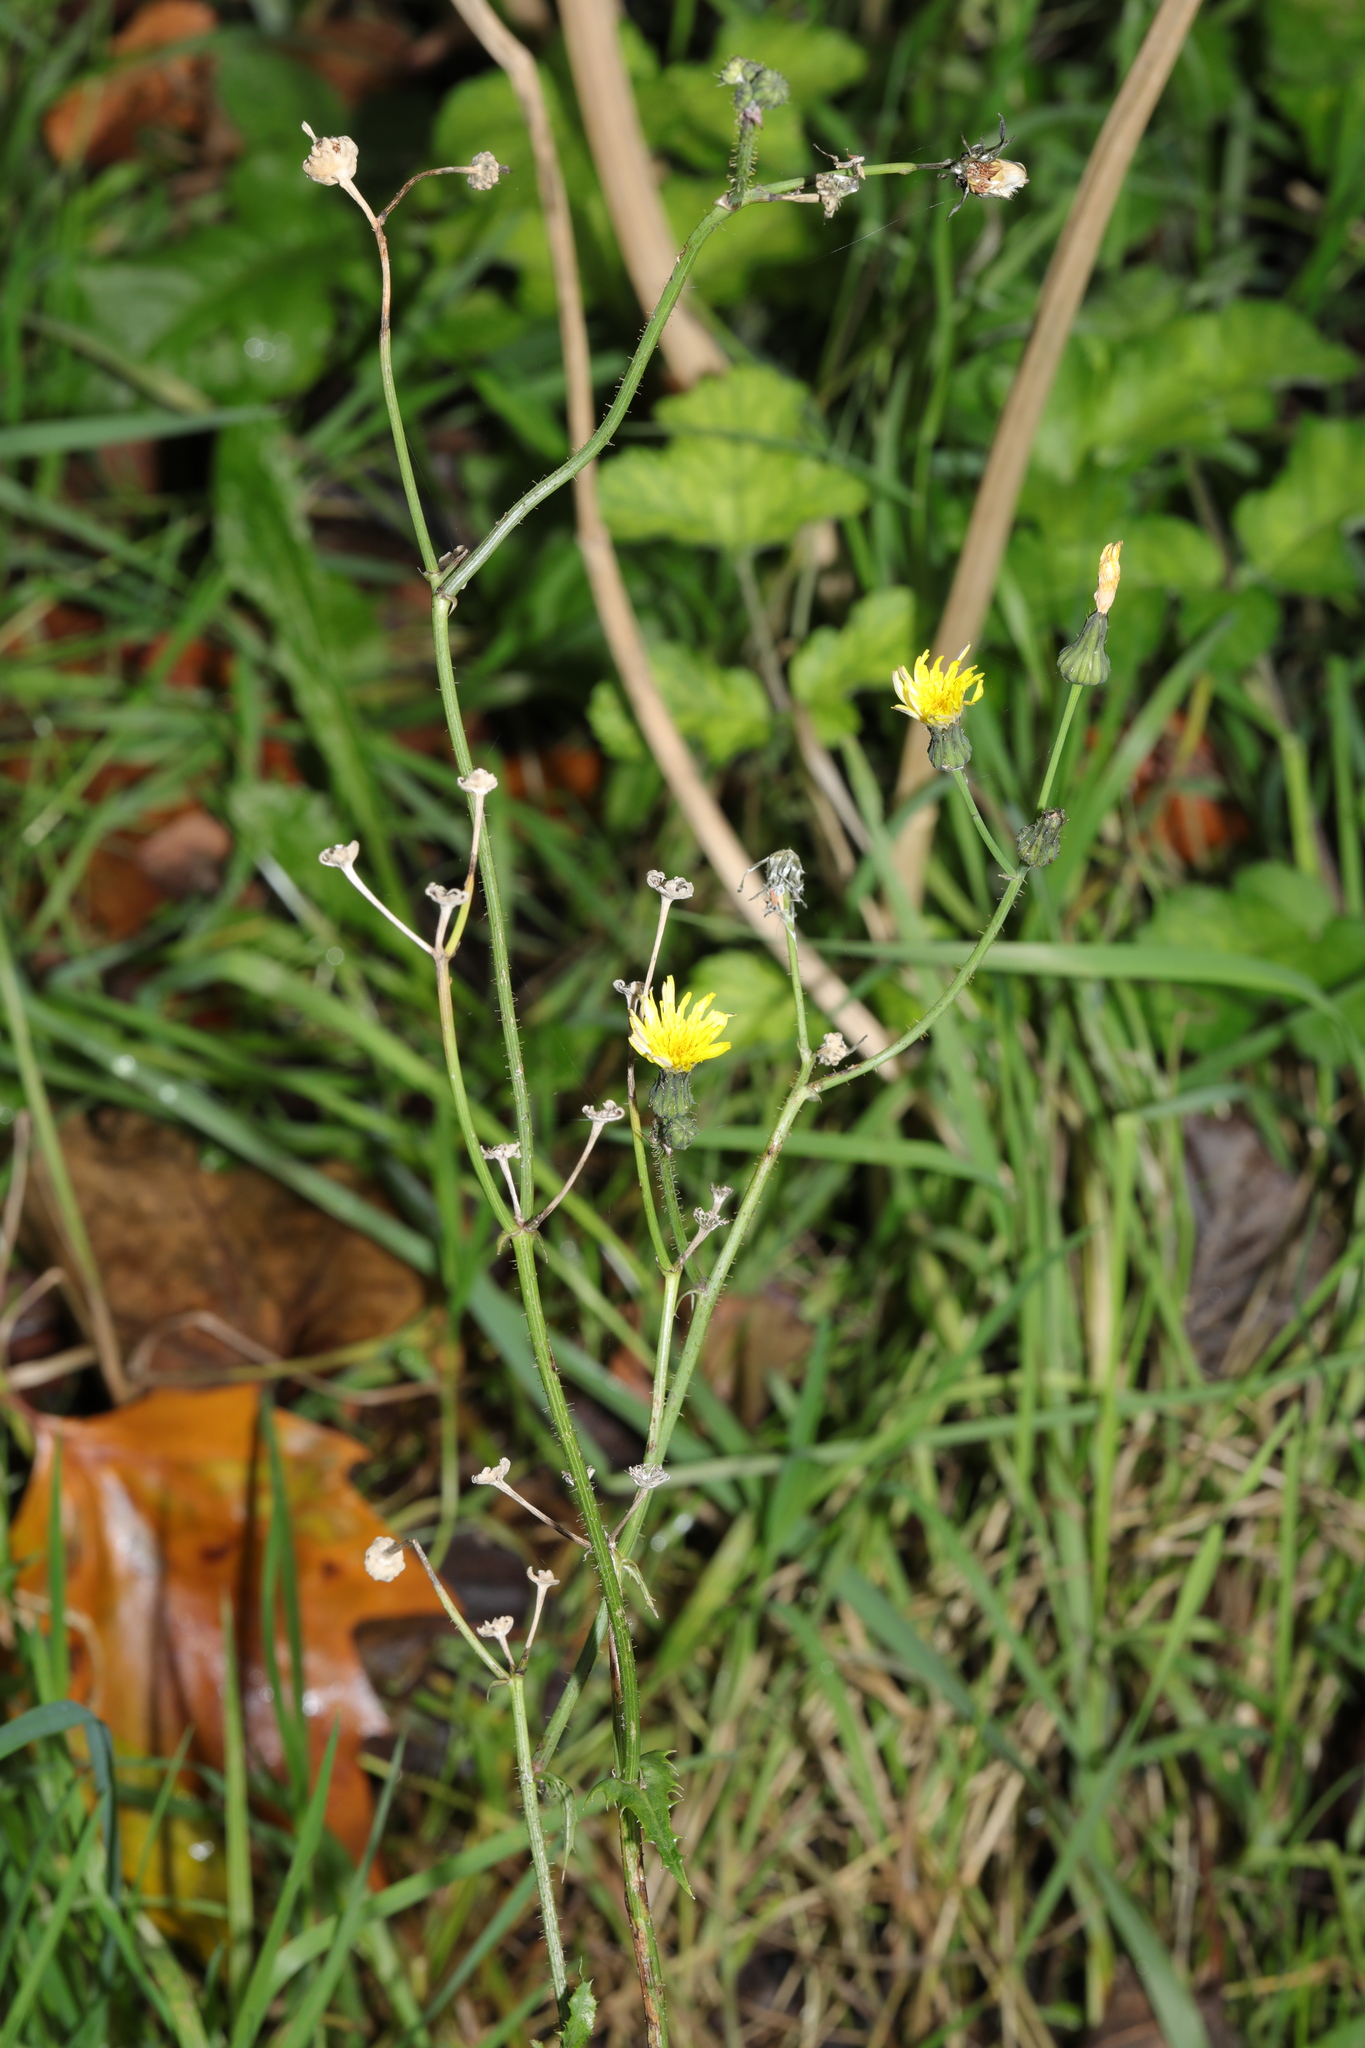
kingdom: Plantae
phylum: Tracheophyta
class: Magnoliopsida
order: Asterales
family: Asteraceae
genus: Sonchus
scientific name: Sonchus oleraceus
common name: Common sowthistle
